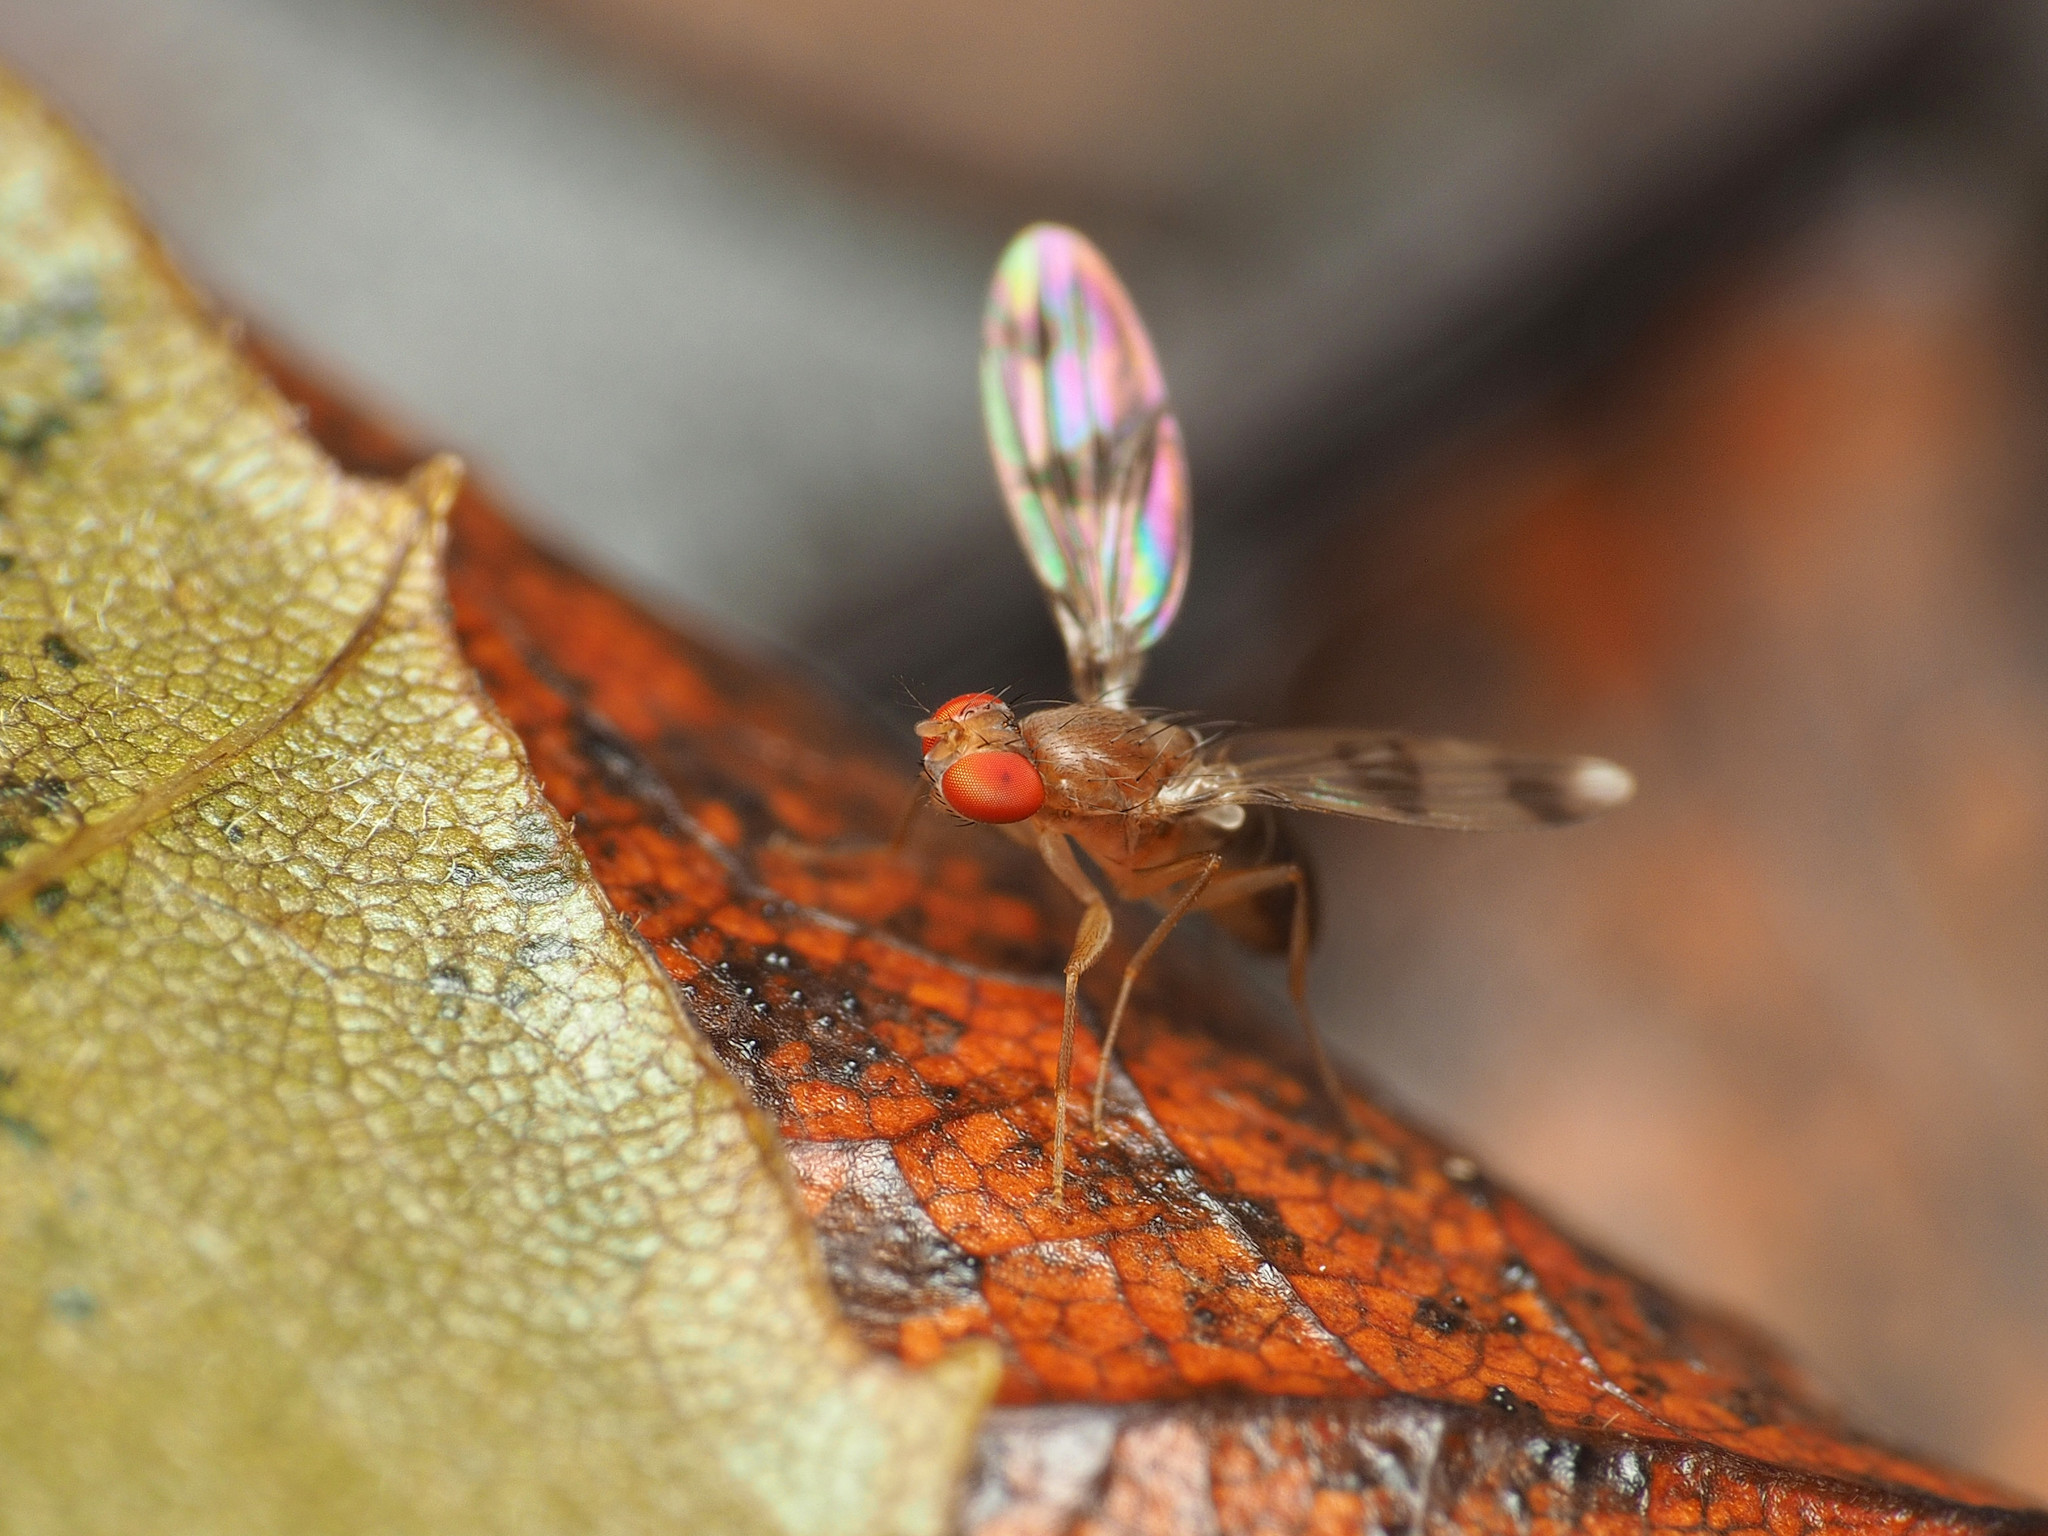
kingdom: Animalia
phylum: Arthropoda
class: Insecta
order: Diptera
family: Drosophilidae
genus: Chymomyza
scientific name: Chymomyza amoena
